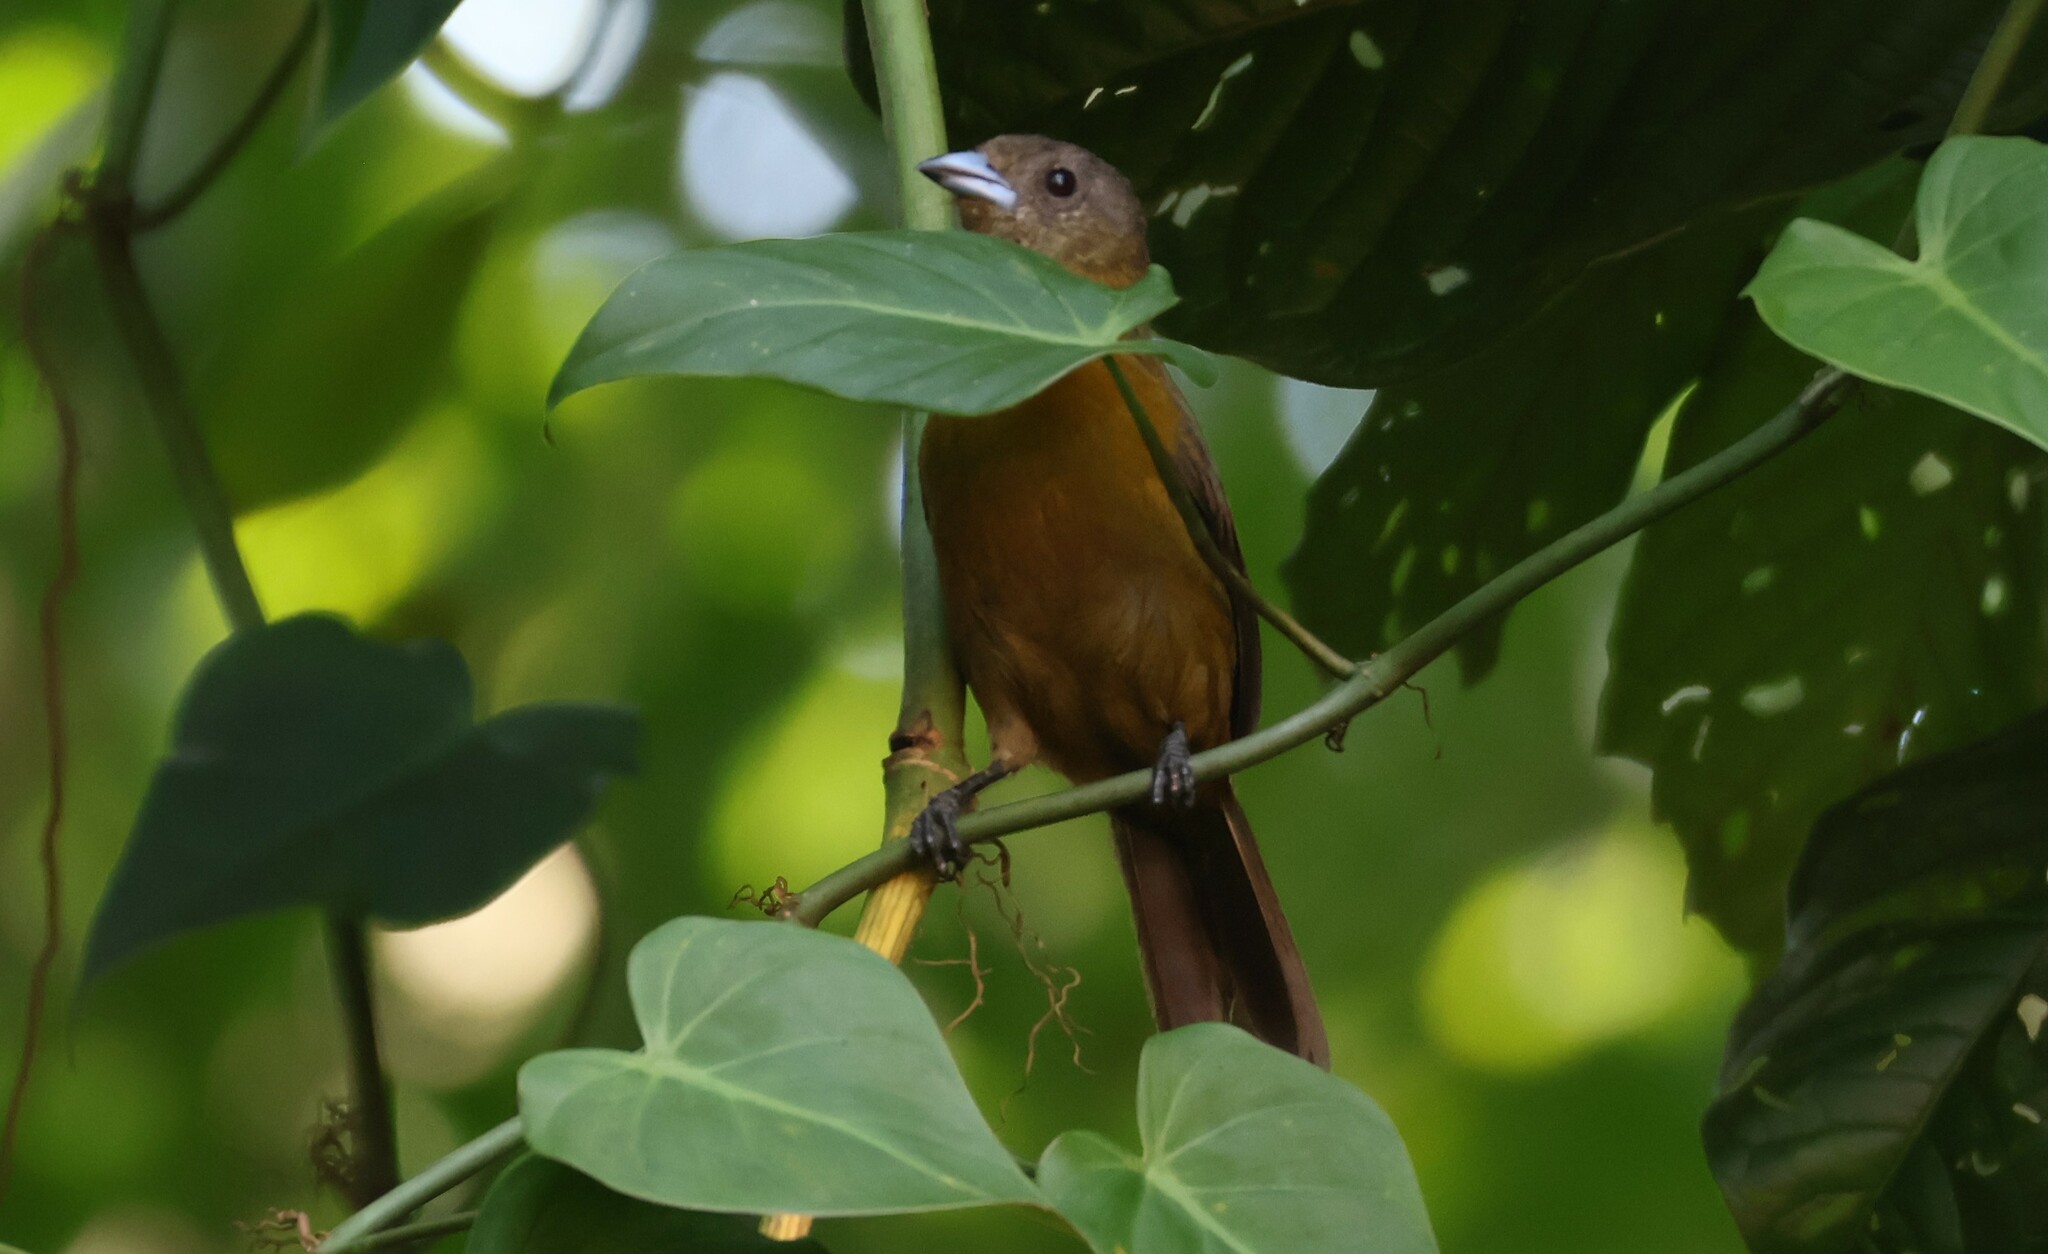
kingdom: Animalia
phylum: Chordata
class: Aves
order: Passeriformes
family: Thraupidae
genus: Ramphocelus
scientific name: Ramphocelus passerinii
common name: Passerini's tanager
